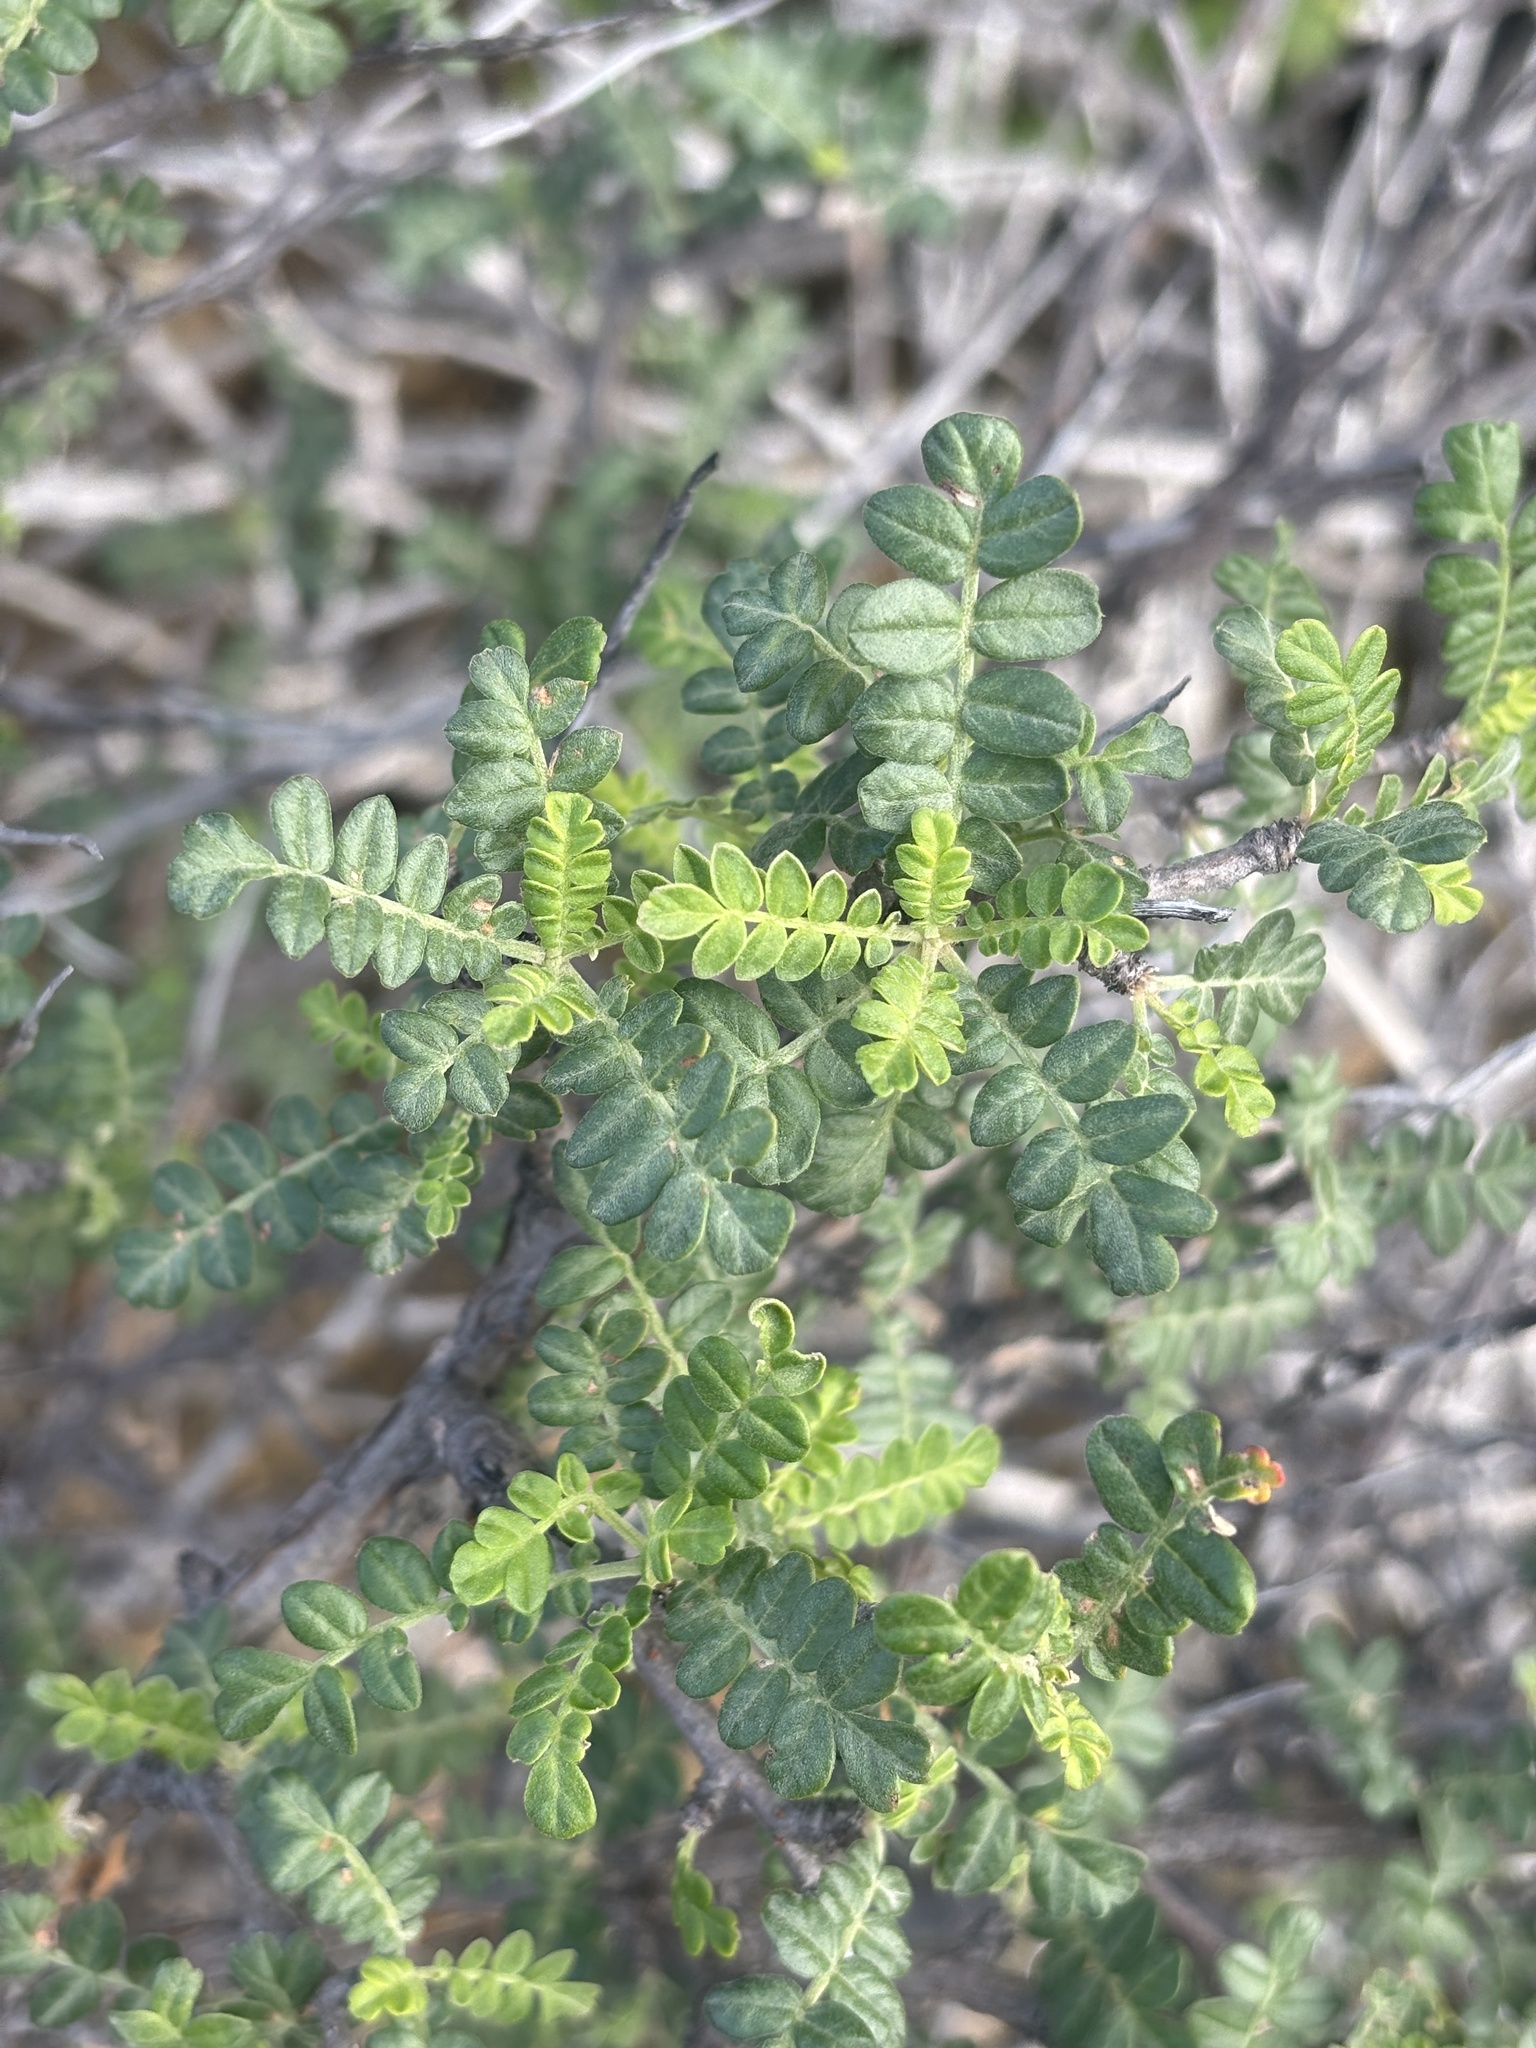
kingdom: Plantae
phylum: Tracheophyta
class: Magnoliopsida
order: Sapindales
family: Anacardiaceae
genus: Pachycormus
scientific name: Pachycormus discolor
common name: Succulent elephant trees
